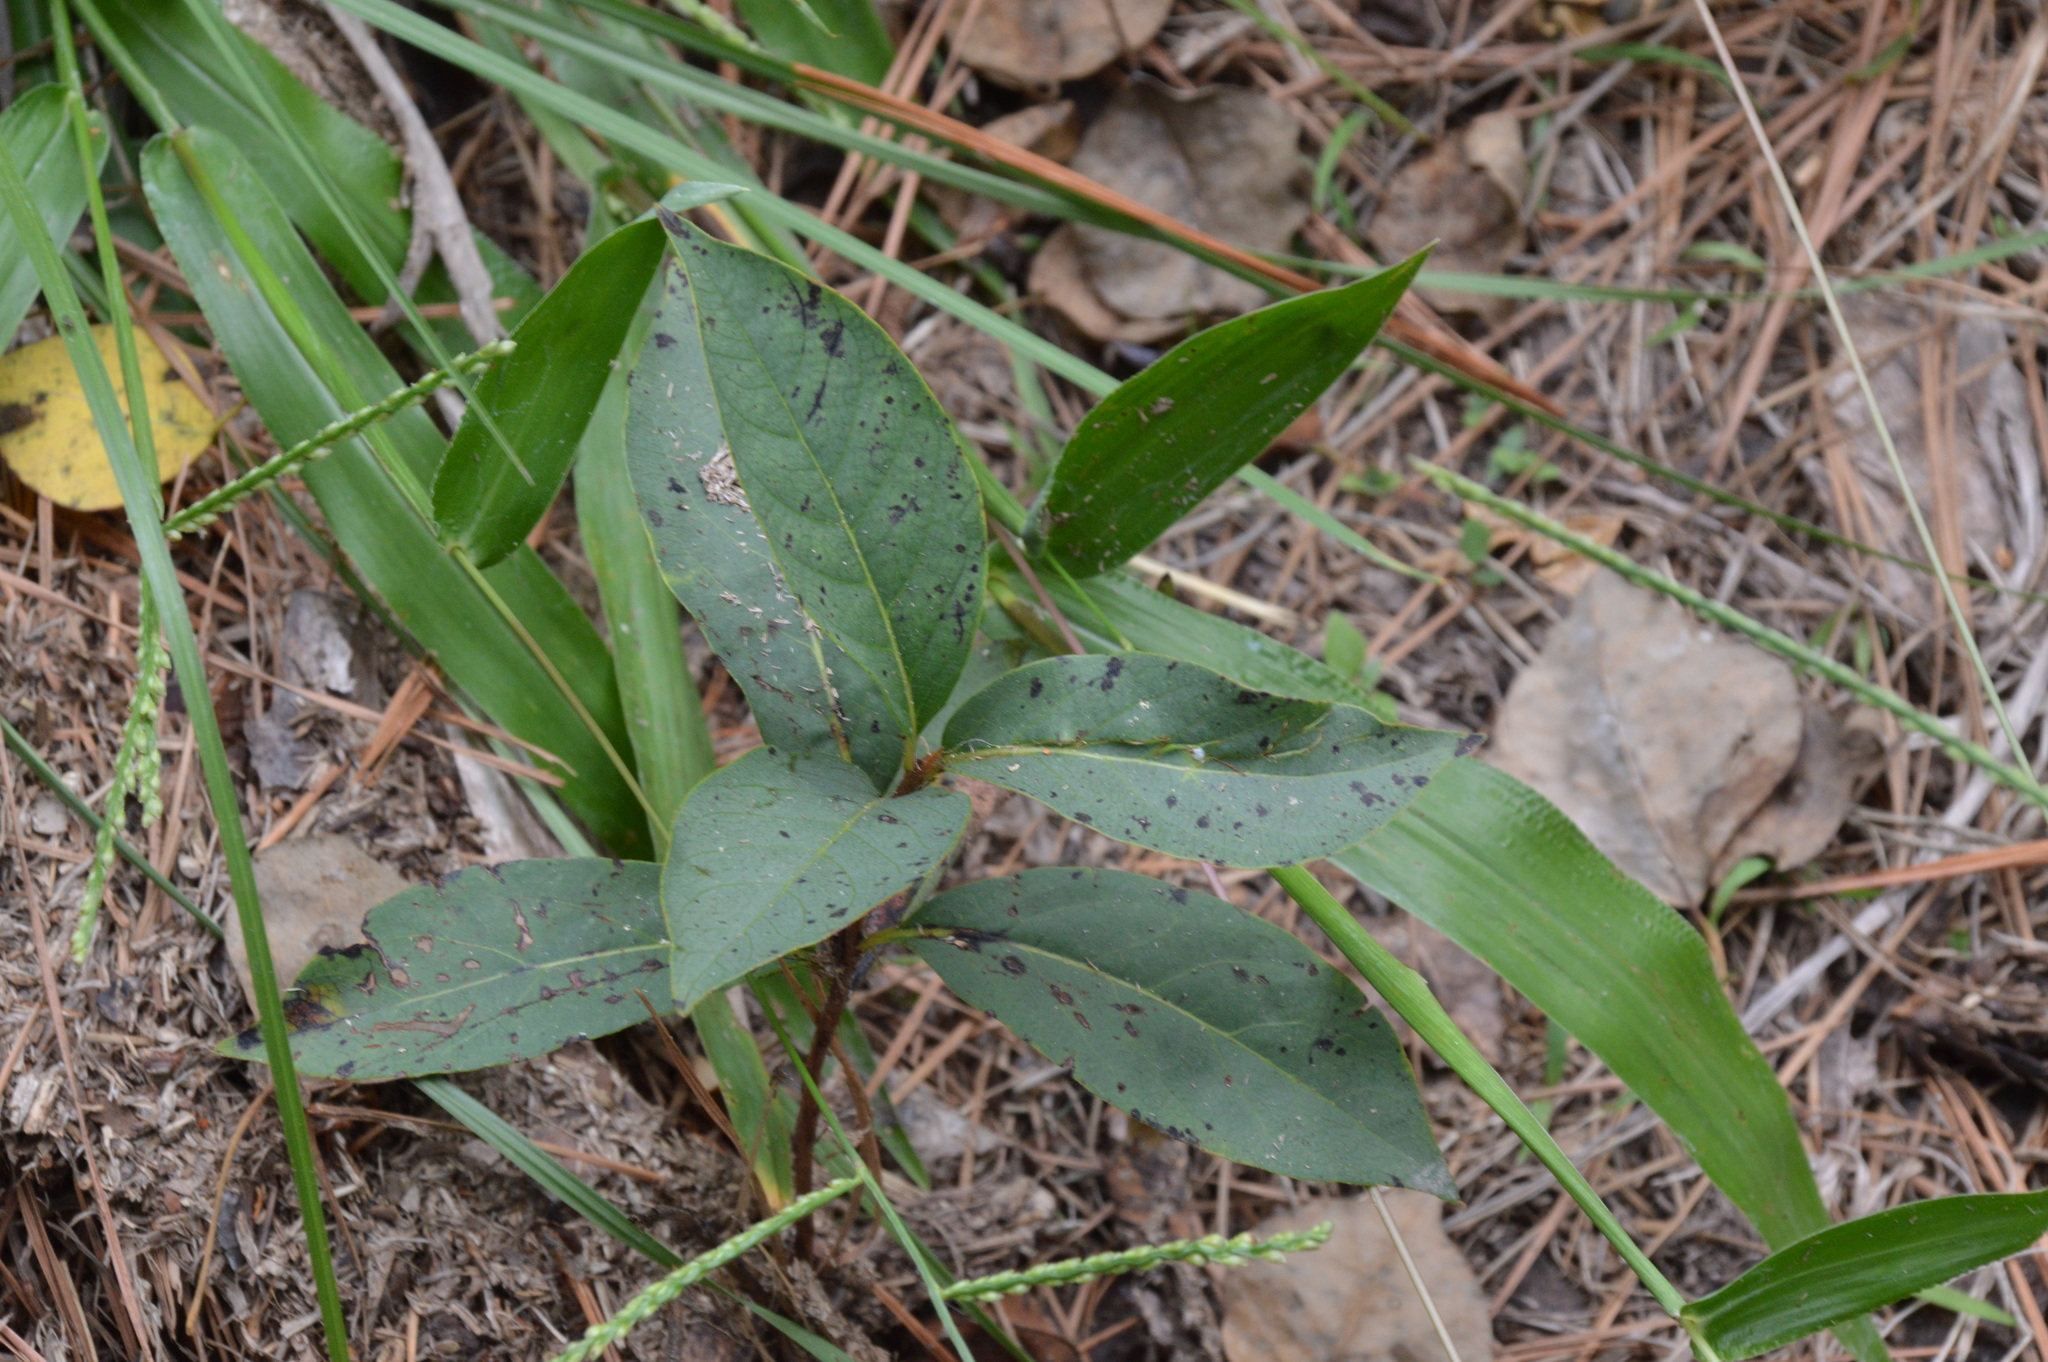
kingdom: Plantae
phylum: Tracheophyta
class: Magnoliopsida
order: Ericales
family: Ebenaceae
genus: Diospyros
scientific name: Diospyros virginiana
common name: Persimmon
